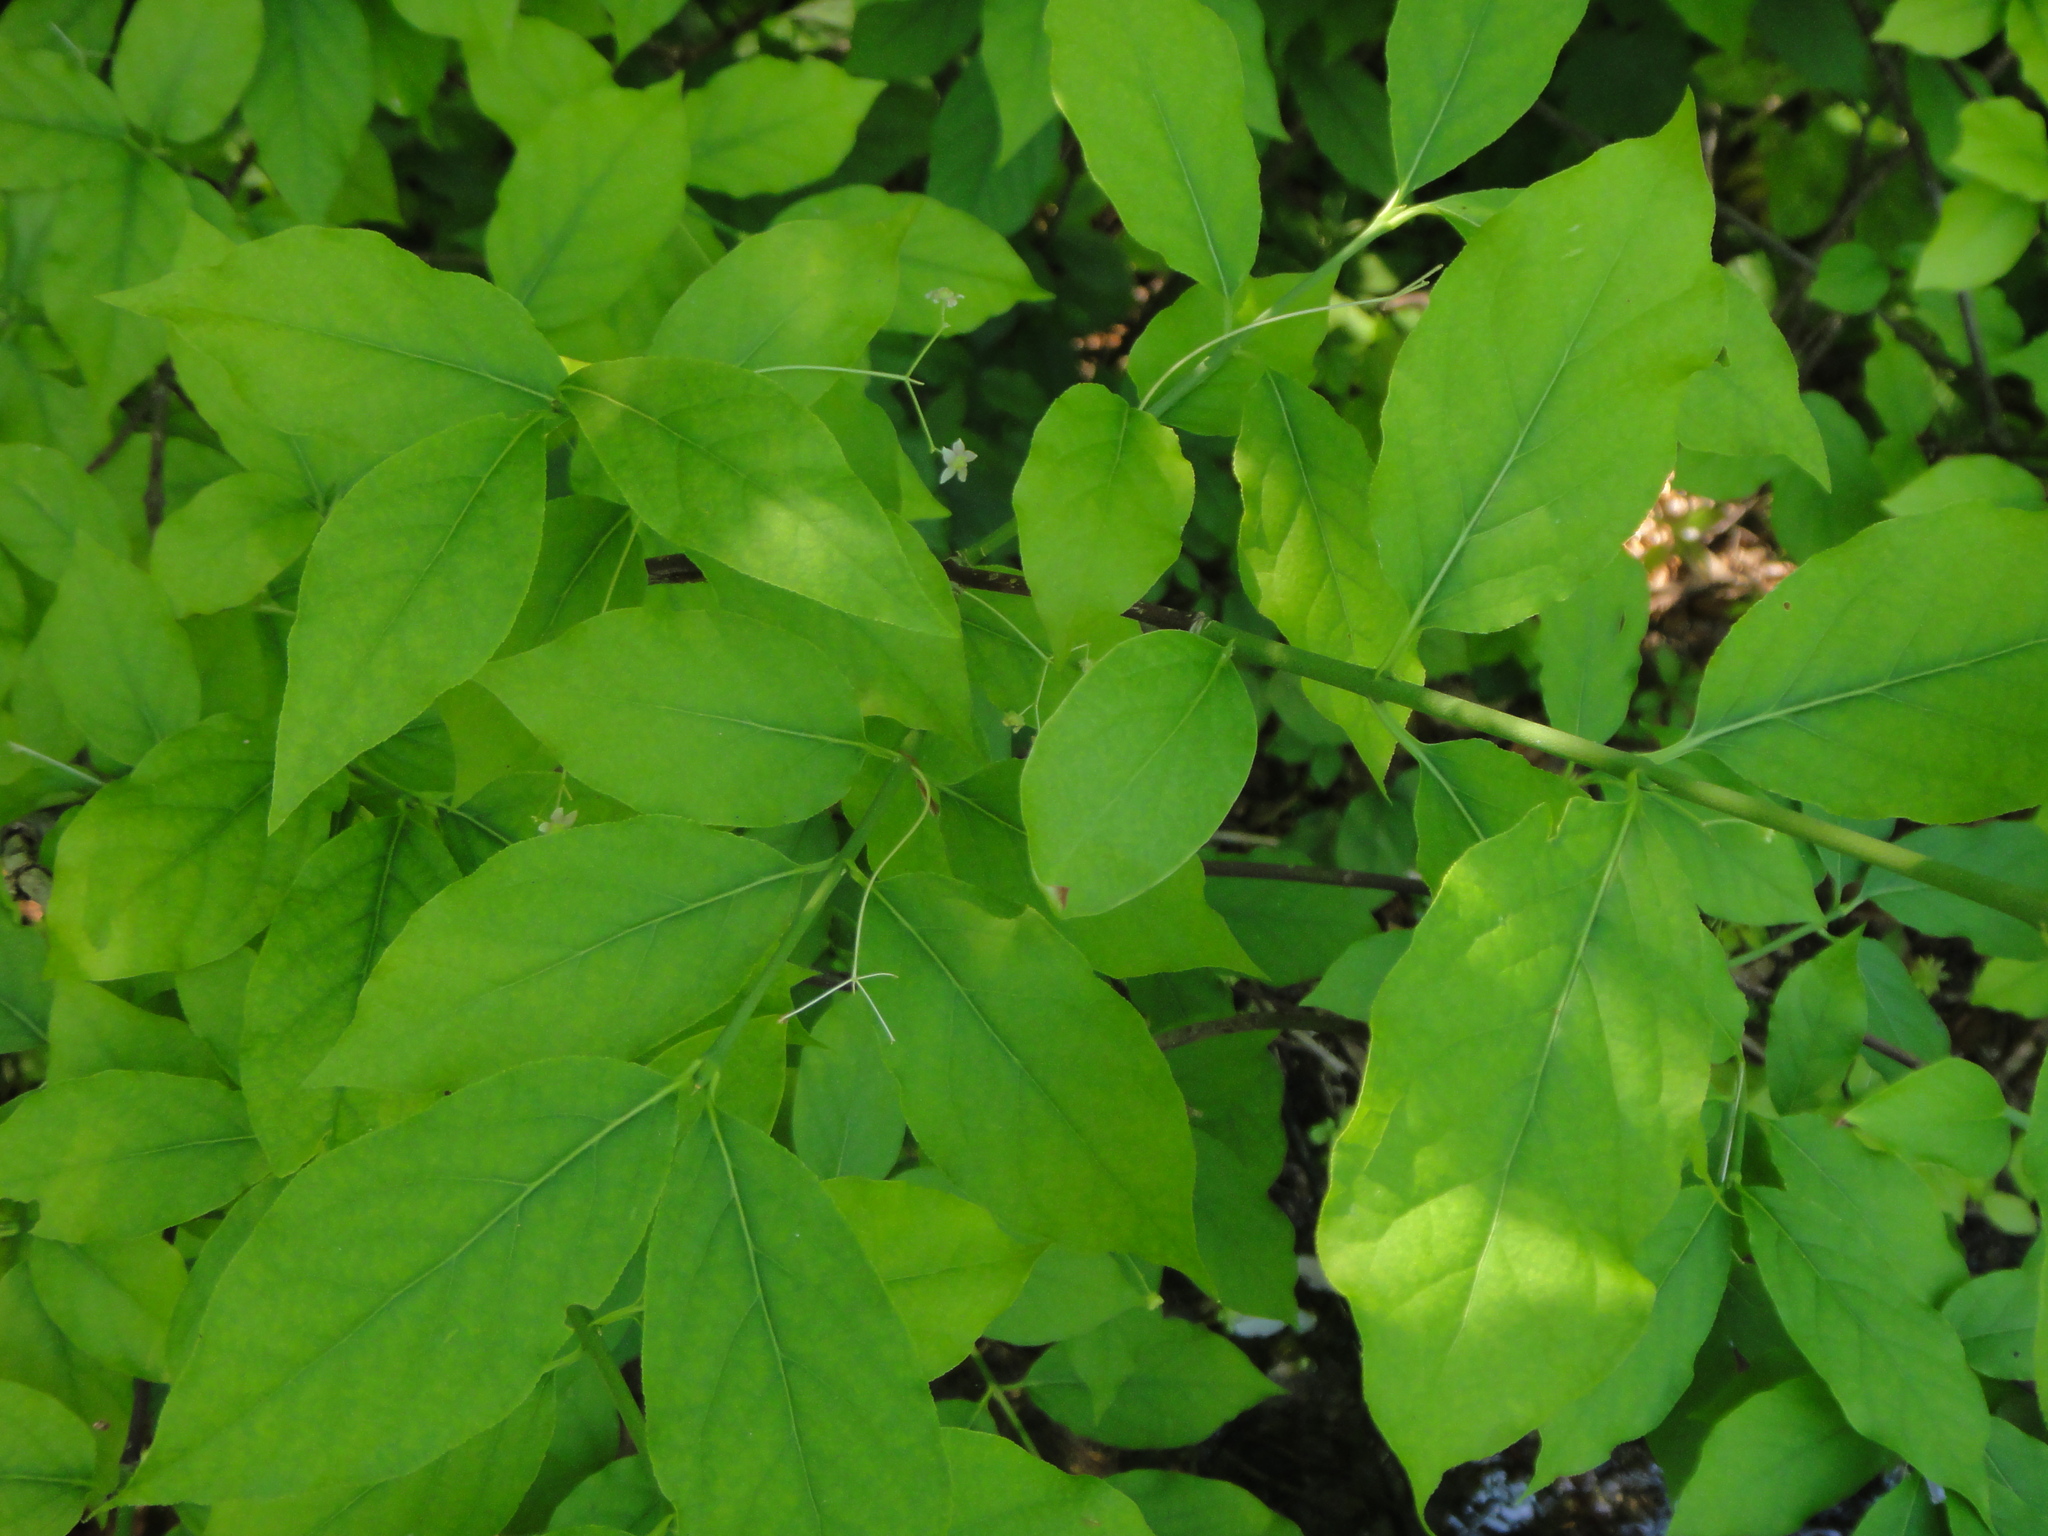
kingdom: Plantae
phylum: Tracheophyta
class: Magnoliopsida
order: Celastrales
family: Celastraceae
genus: Euonymus
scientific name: Euonymus latifolius
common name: Large-leaved spindle
